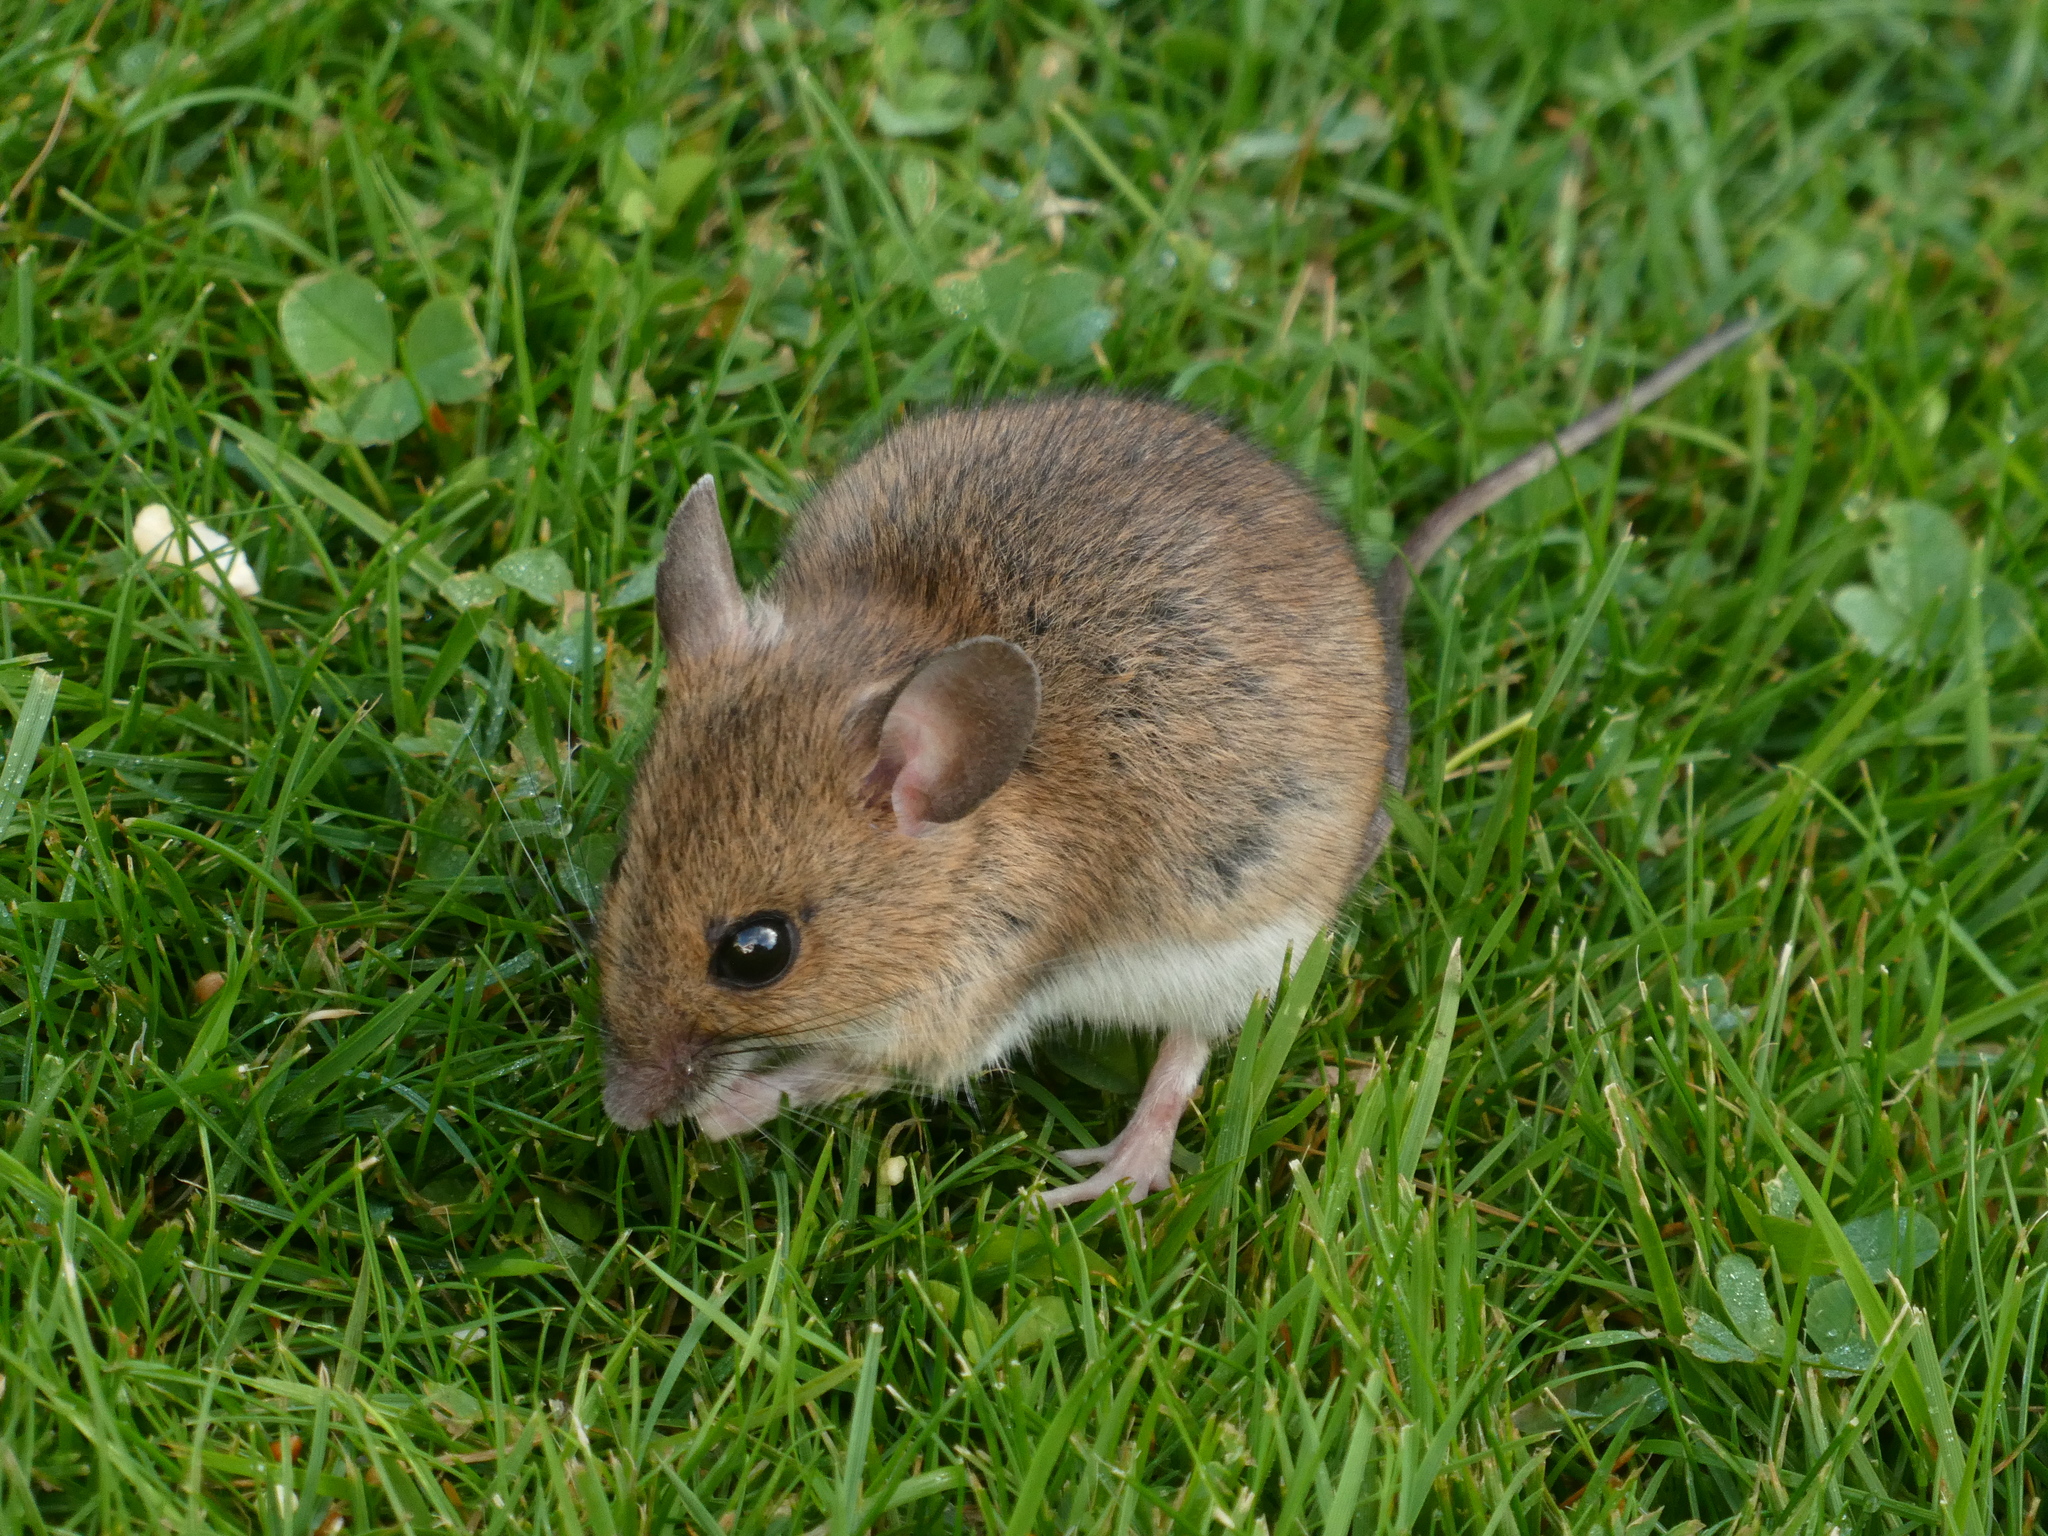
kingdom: Animalia
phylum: Chordata
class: Mammalia
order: Rodentia
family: Muridae
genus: Apodemus
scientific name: Apodemus sylvaticus
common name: Wood mouse
